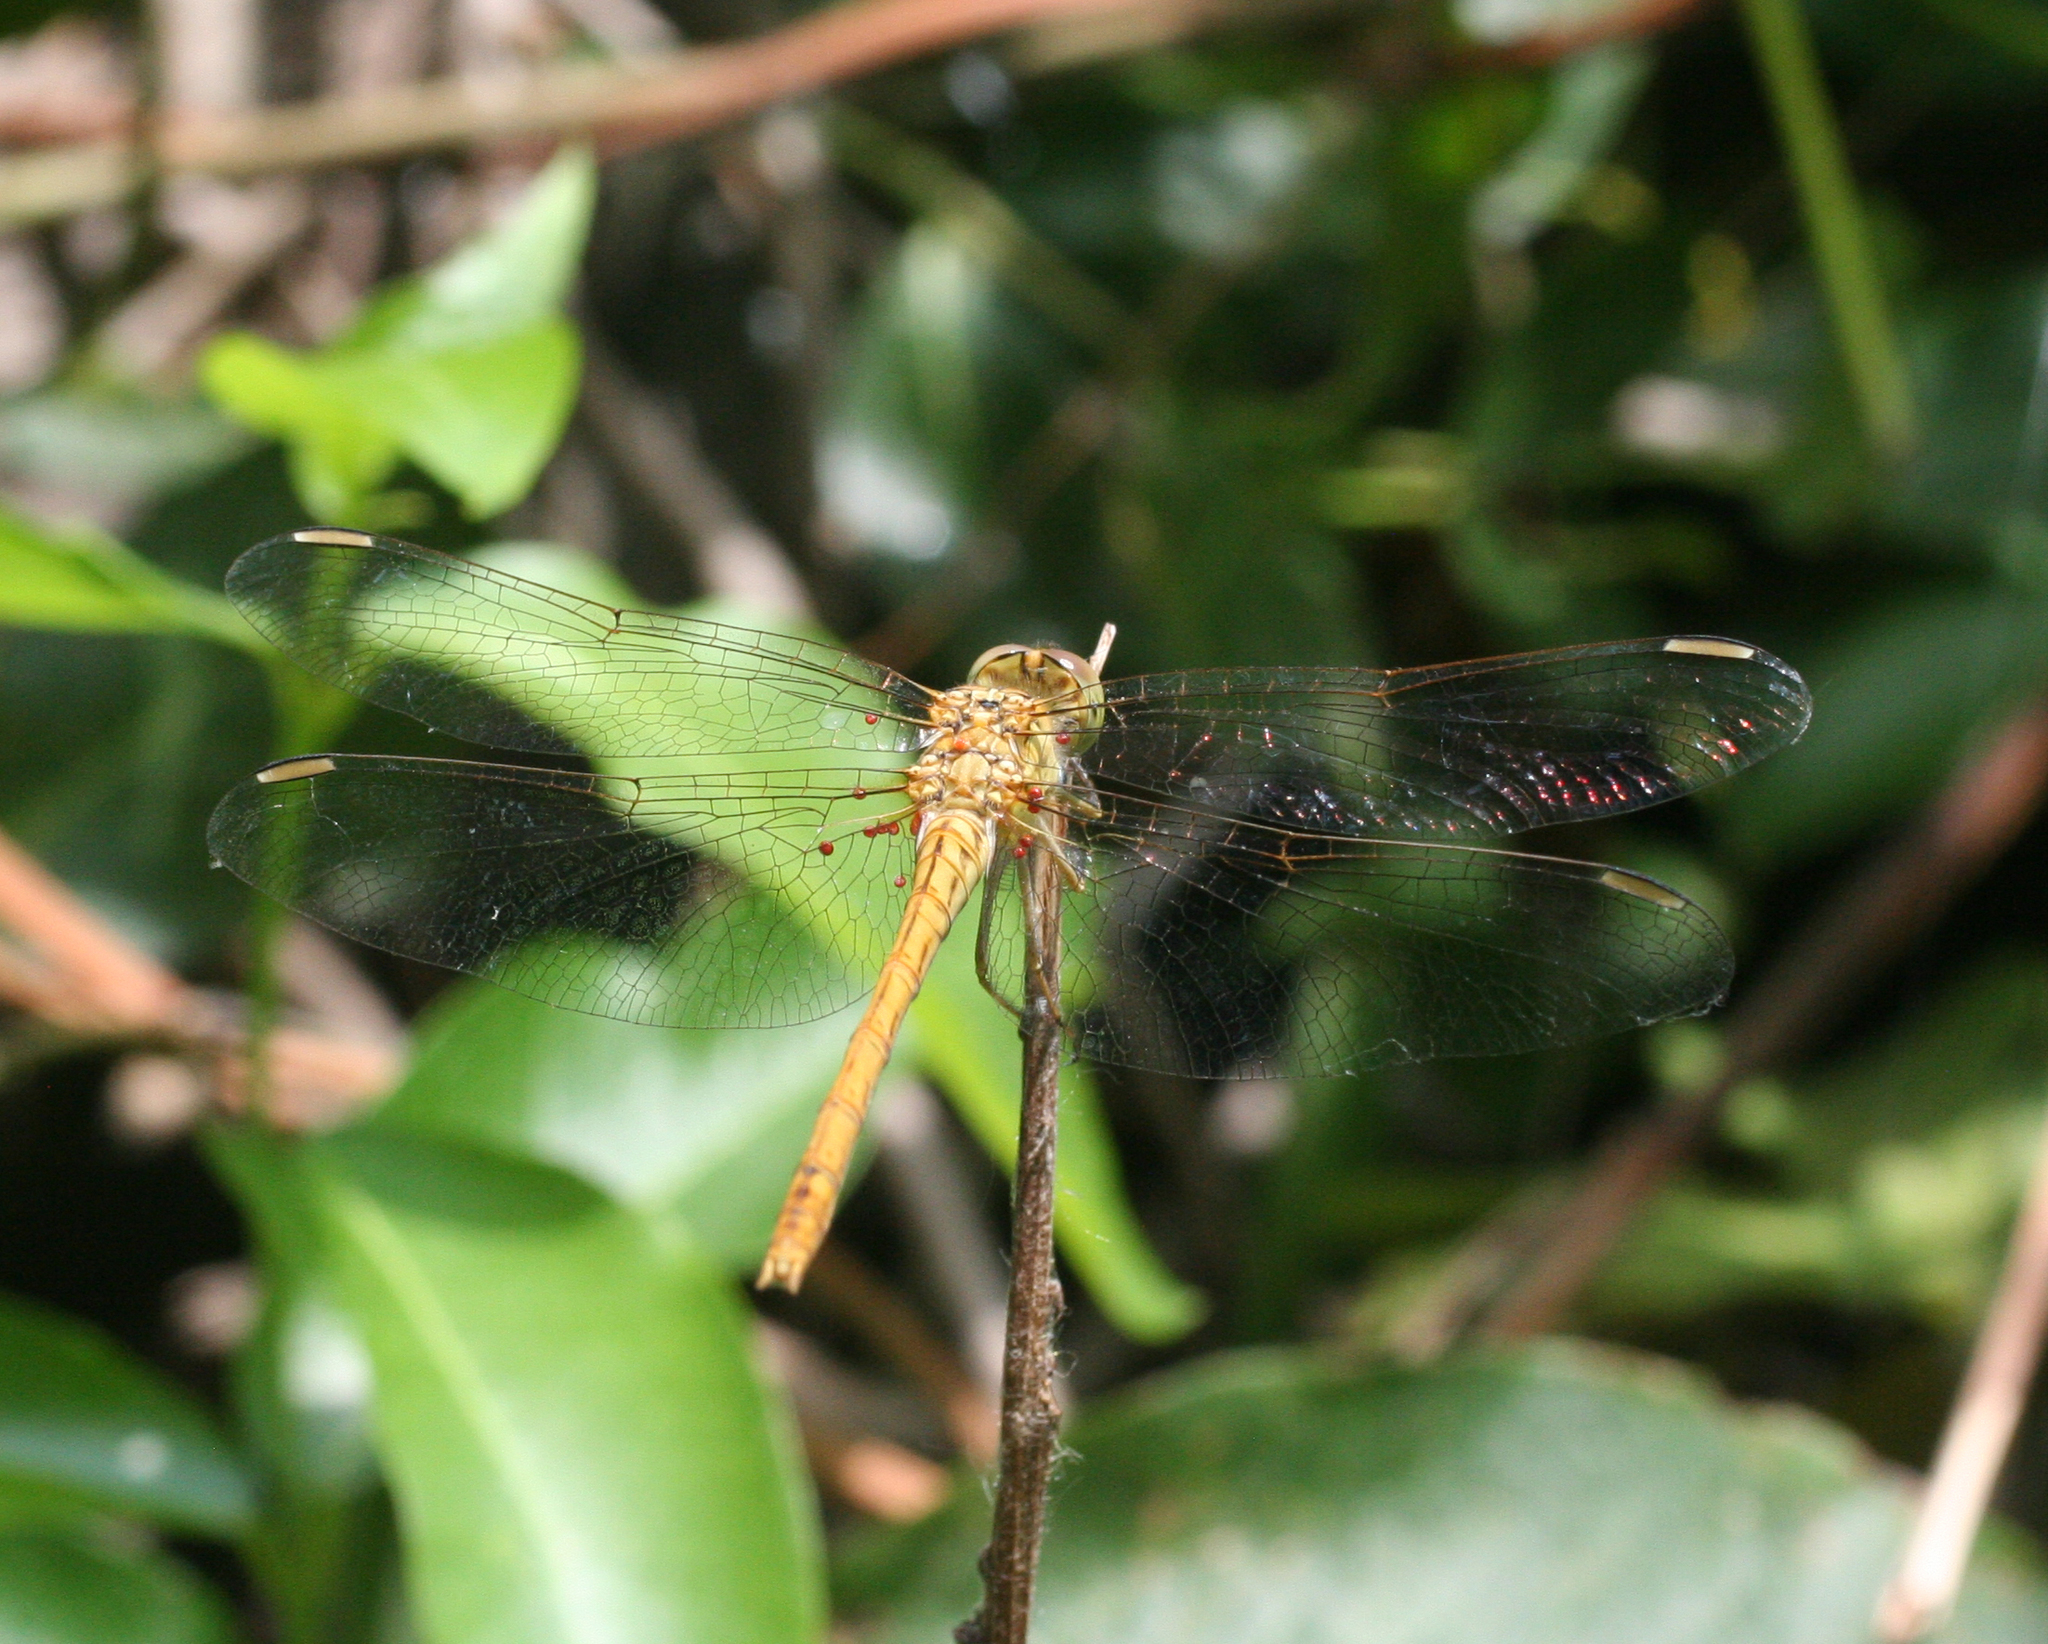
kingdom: Animalia
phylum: Arthropoda
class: Insecta
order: Odonata
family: Libellulidae
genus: Sympetrum
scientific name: Sympetrum meridionale
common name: Southern darter
